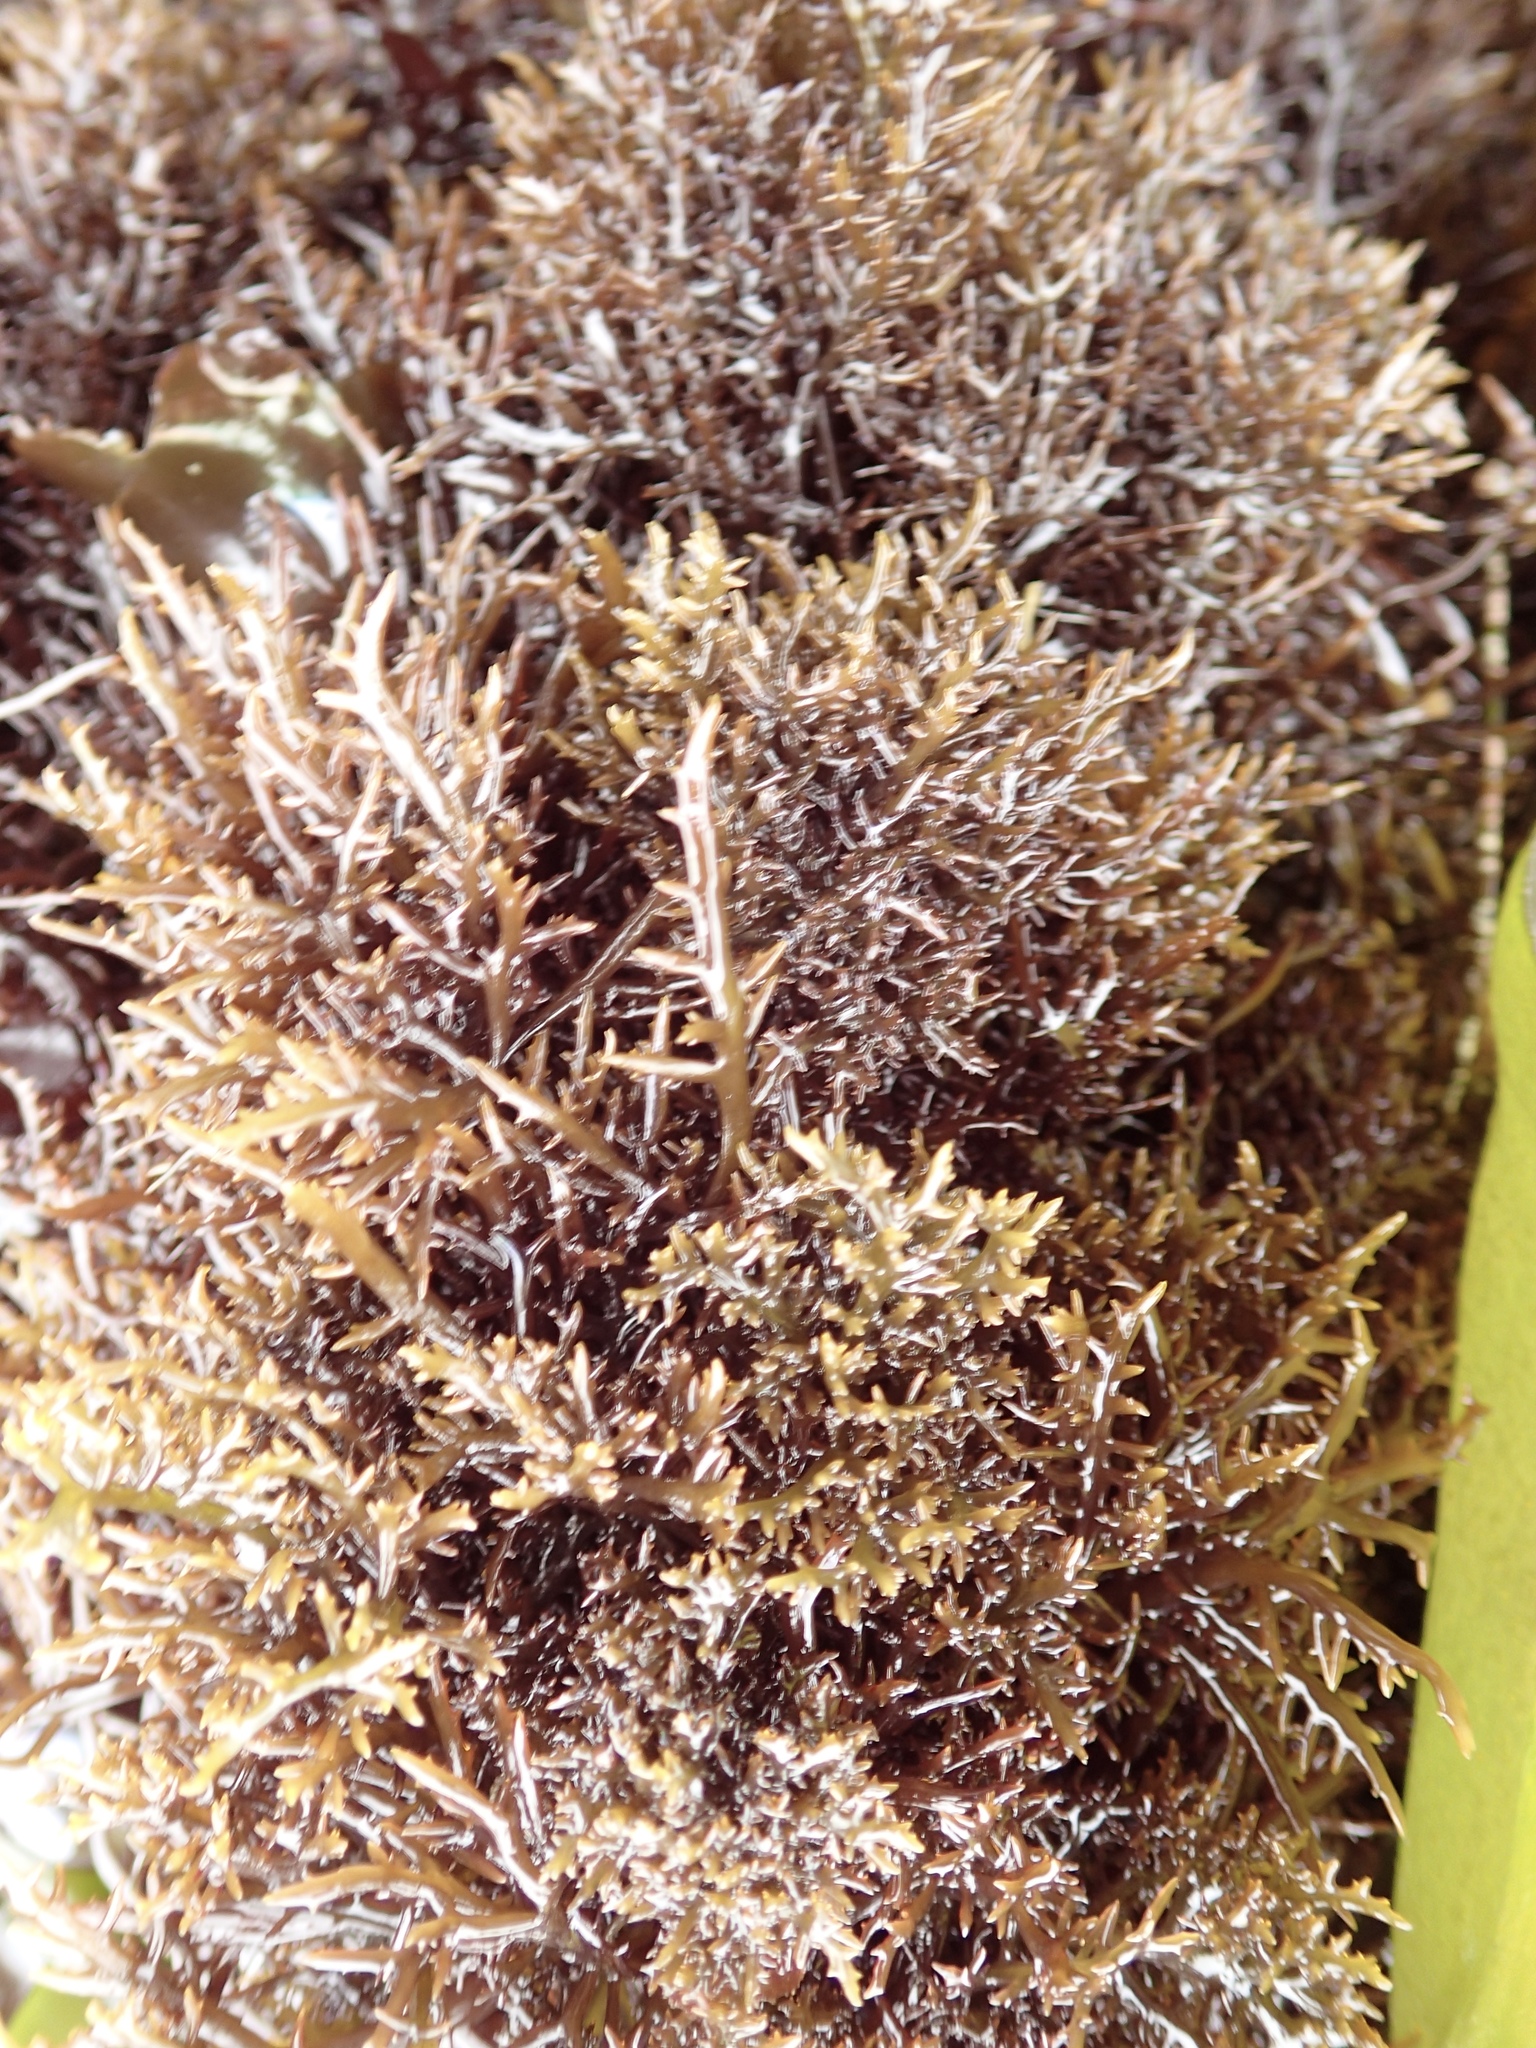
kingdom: Plantae
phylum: Rhodophyta
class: Florideophyceae
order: Gigartinales
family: Gigartinaceae
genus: Chondracanthus
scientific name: Chondracanthus canaliculatus
